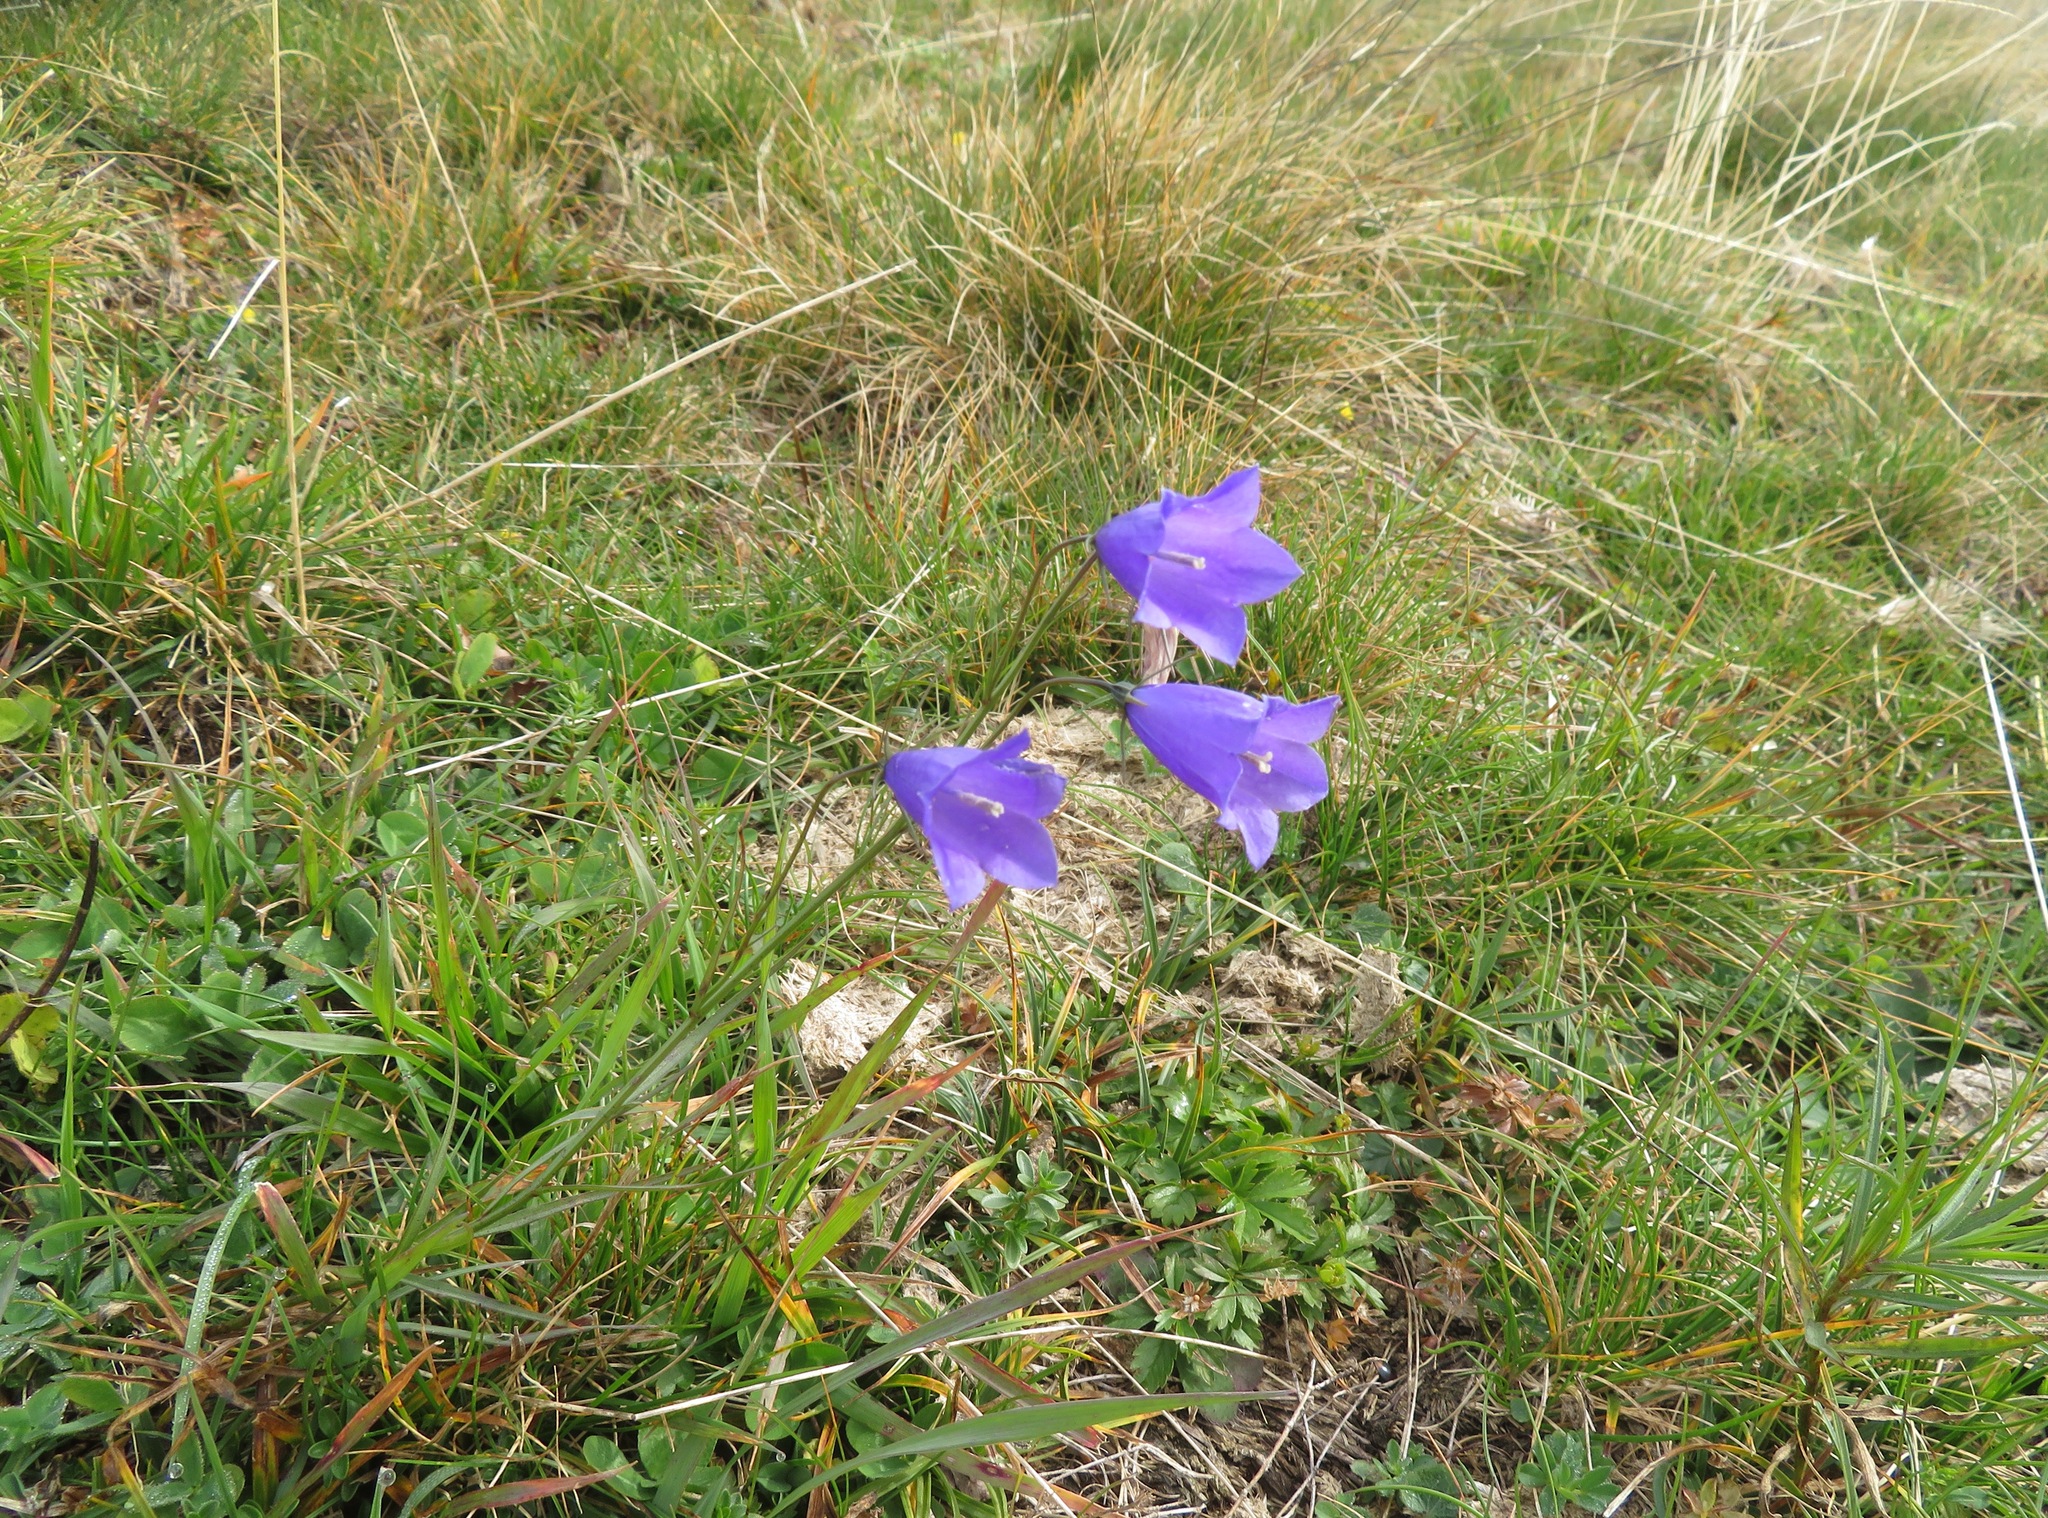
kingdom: Plantae
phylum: Tracheophyta
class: Magnoliopsida
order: Asterales
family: Campanulaceae
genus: Campanula
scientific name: Campanula scheuchzeri
